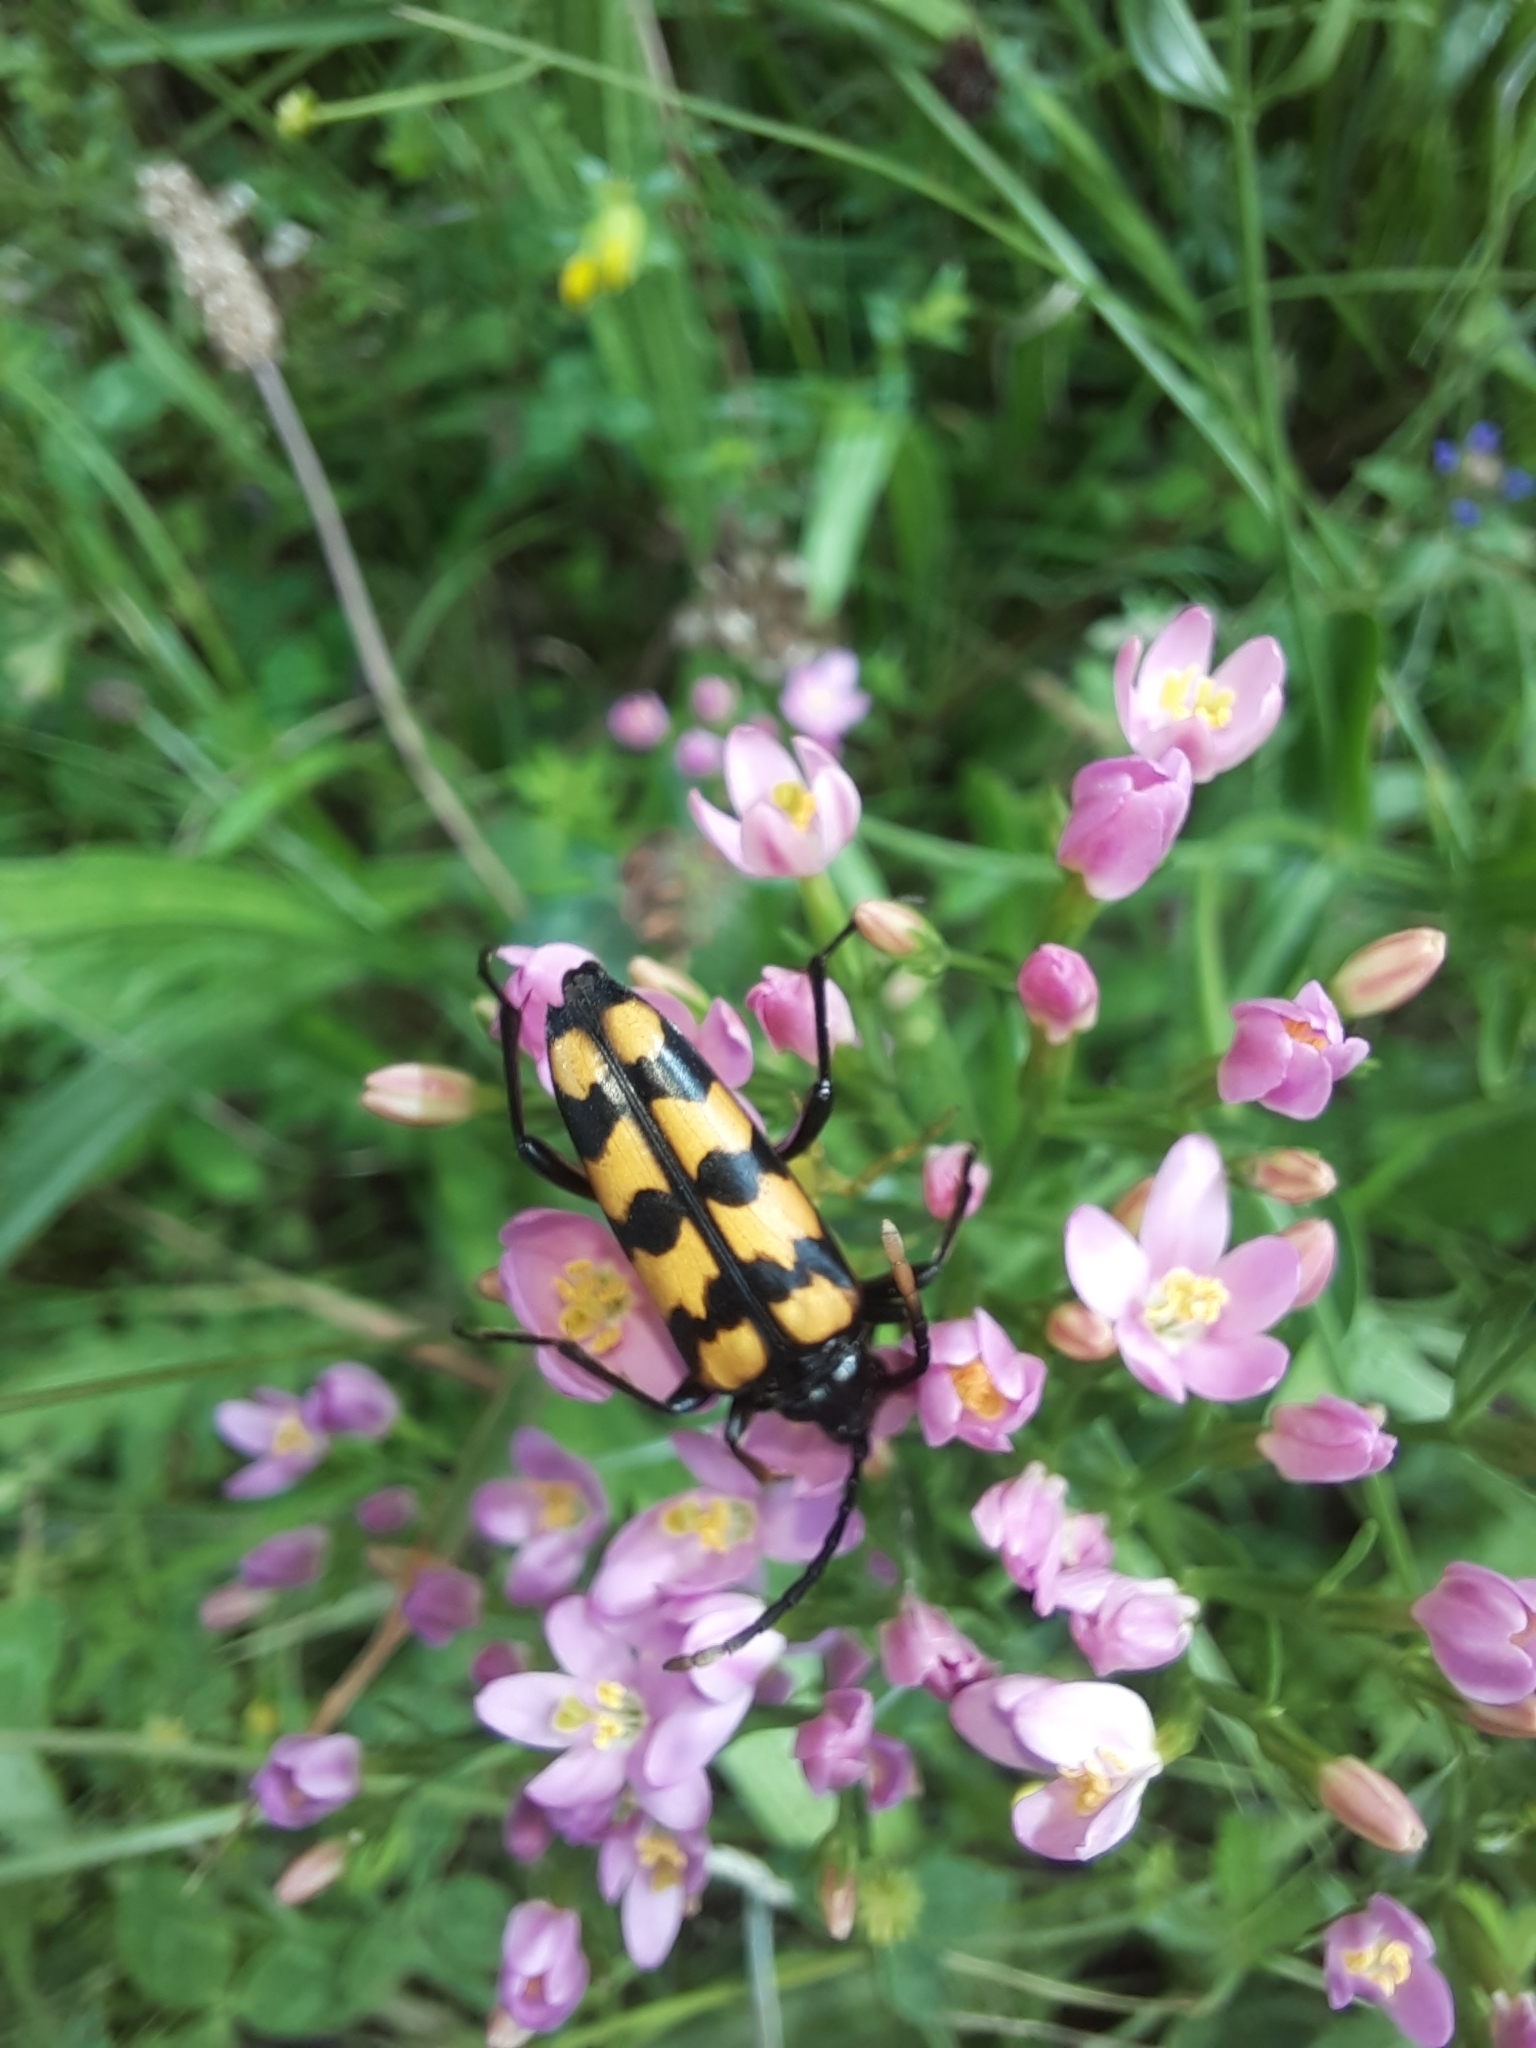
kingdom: Animalia
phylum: Arthropoda
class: Insecta
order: Coleoptera
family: Cerambycidae
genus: Leptura
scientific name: Leptura quadrifasciata
